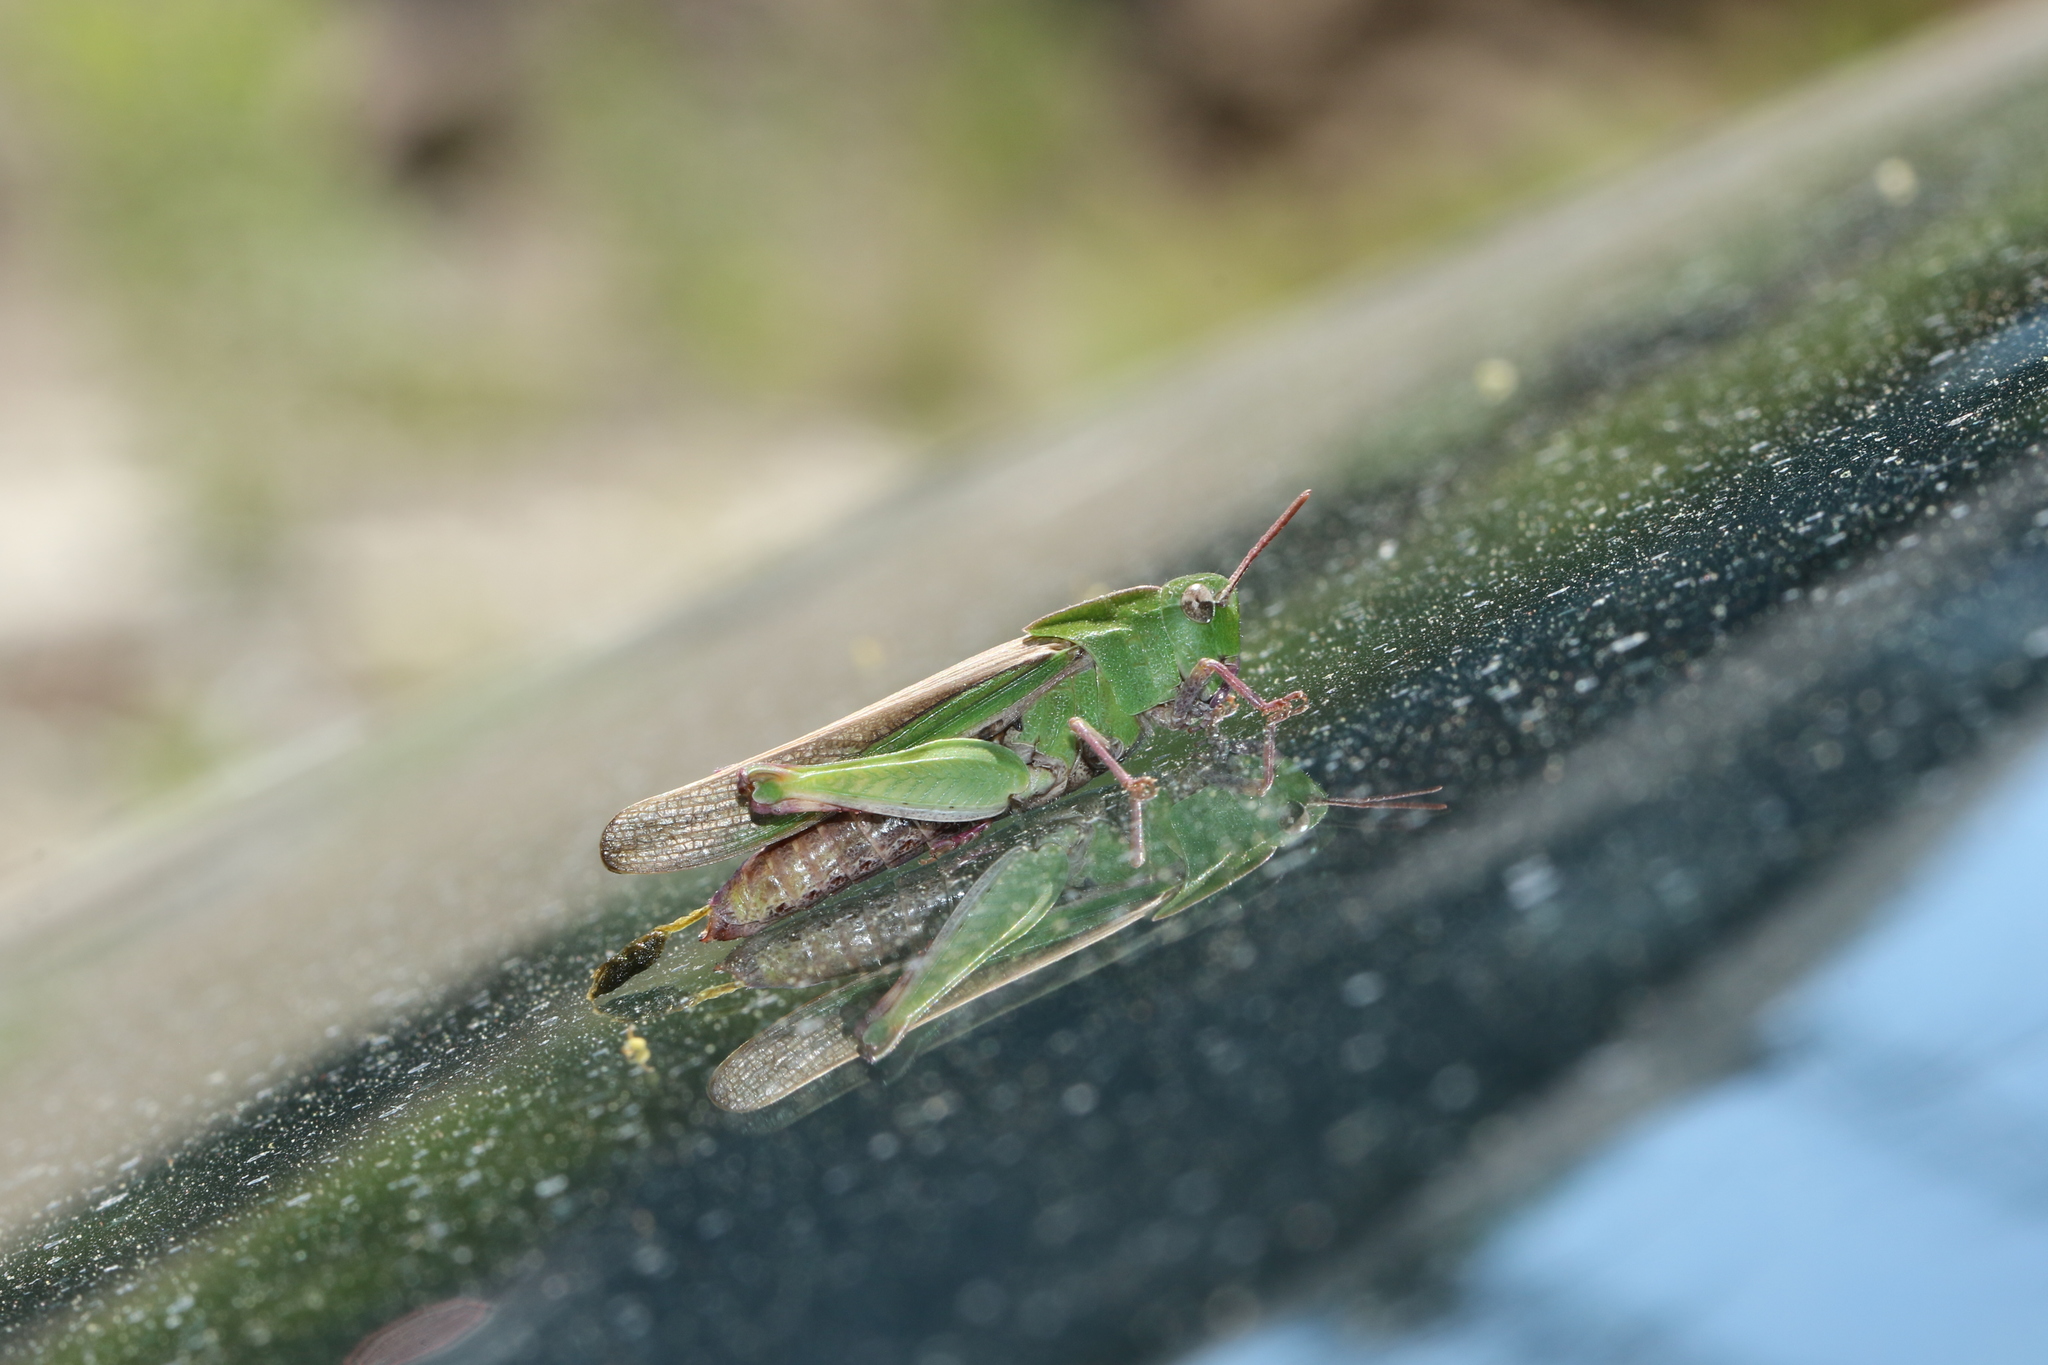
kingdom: Animalia
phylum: Arthropoda
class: Insecta
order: Orthoptera
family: Acrididae
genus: Chortophaga
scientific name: Chortophaga viridifasciata
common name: Green-striped grasshopper
